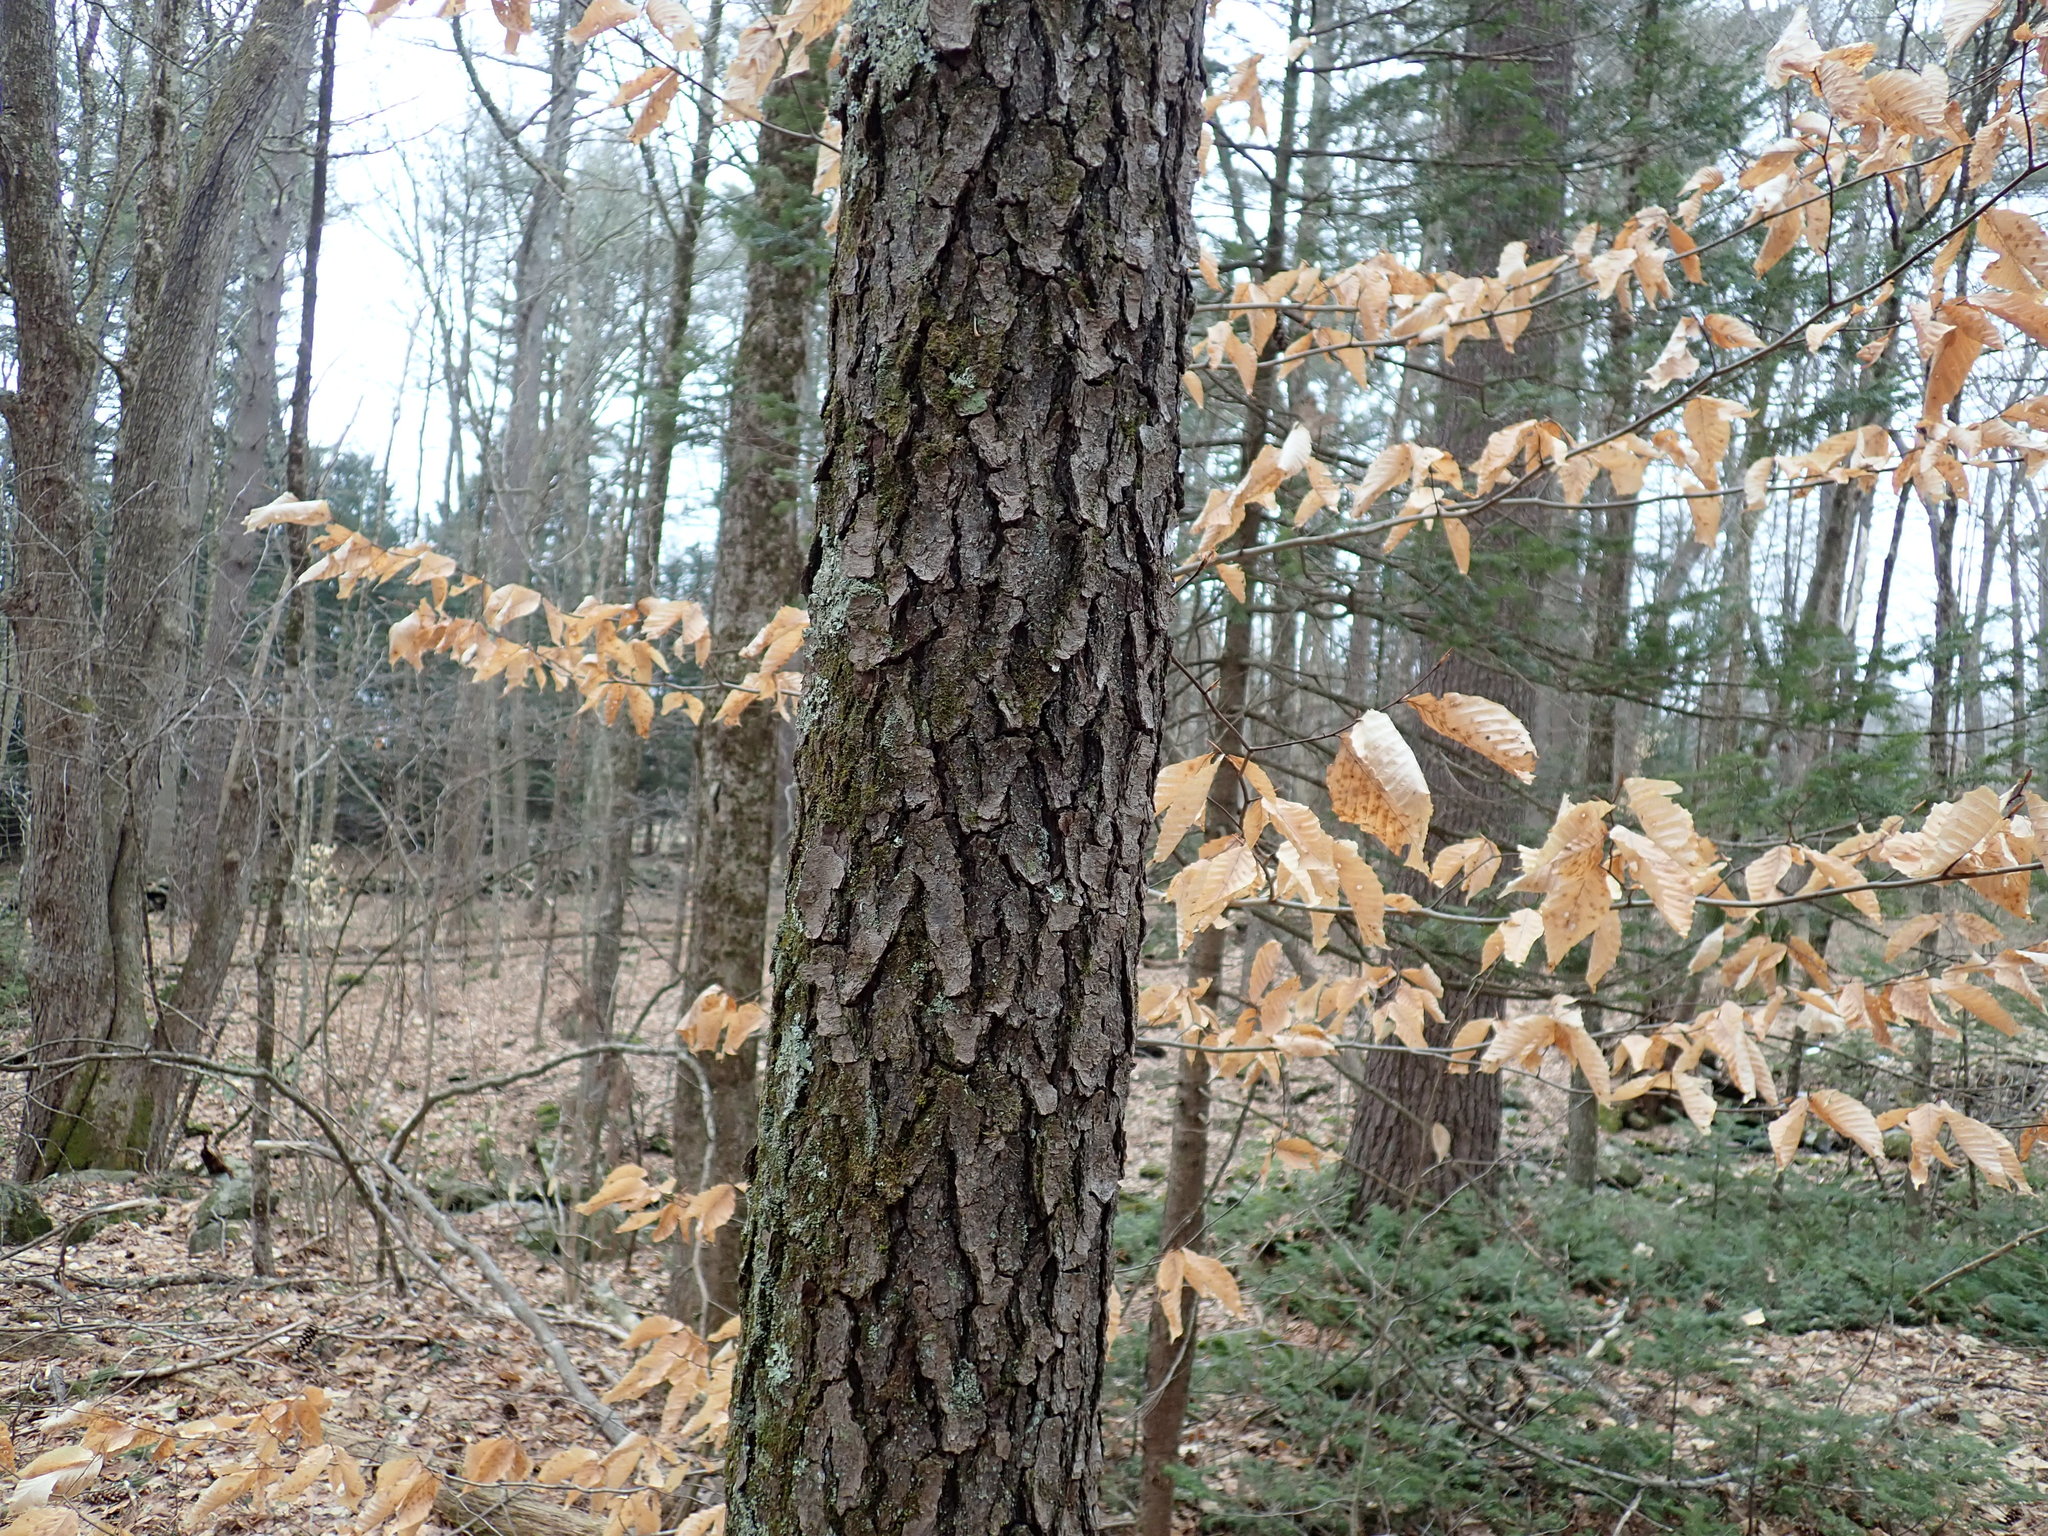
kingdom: Plantae
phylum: Tracheophyta
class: Magnoliopsida
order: Rosales
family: Rosaceae
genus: Prunus
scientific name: Prunus serotina
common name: Black cherry
